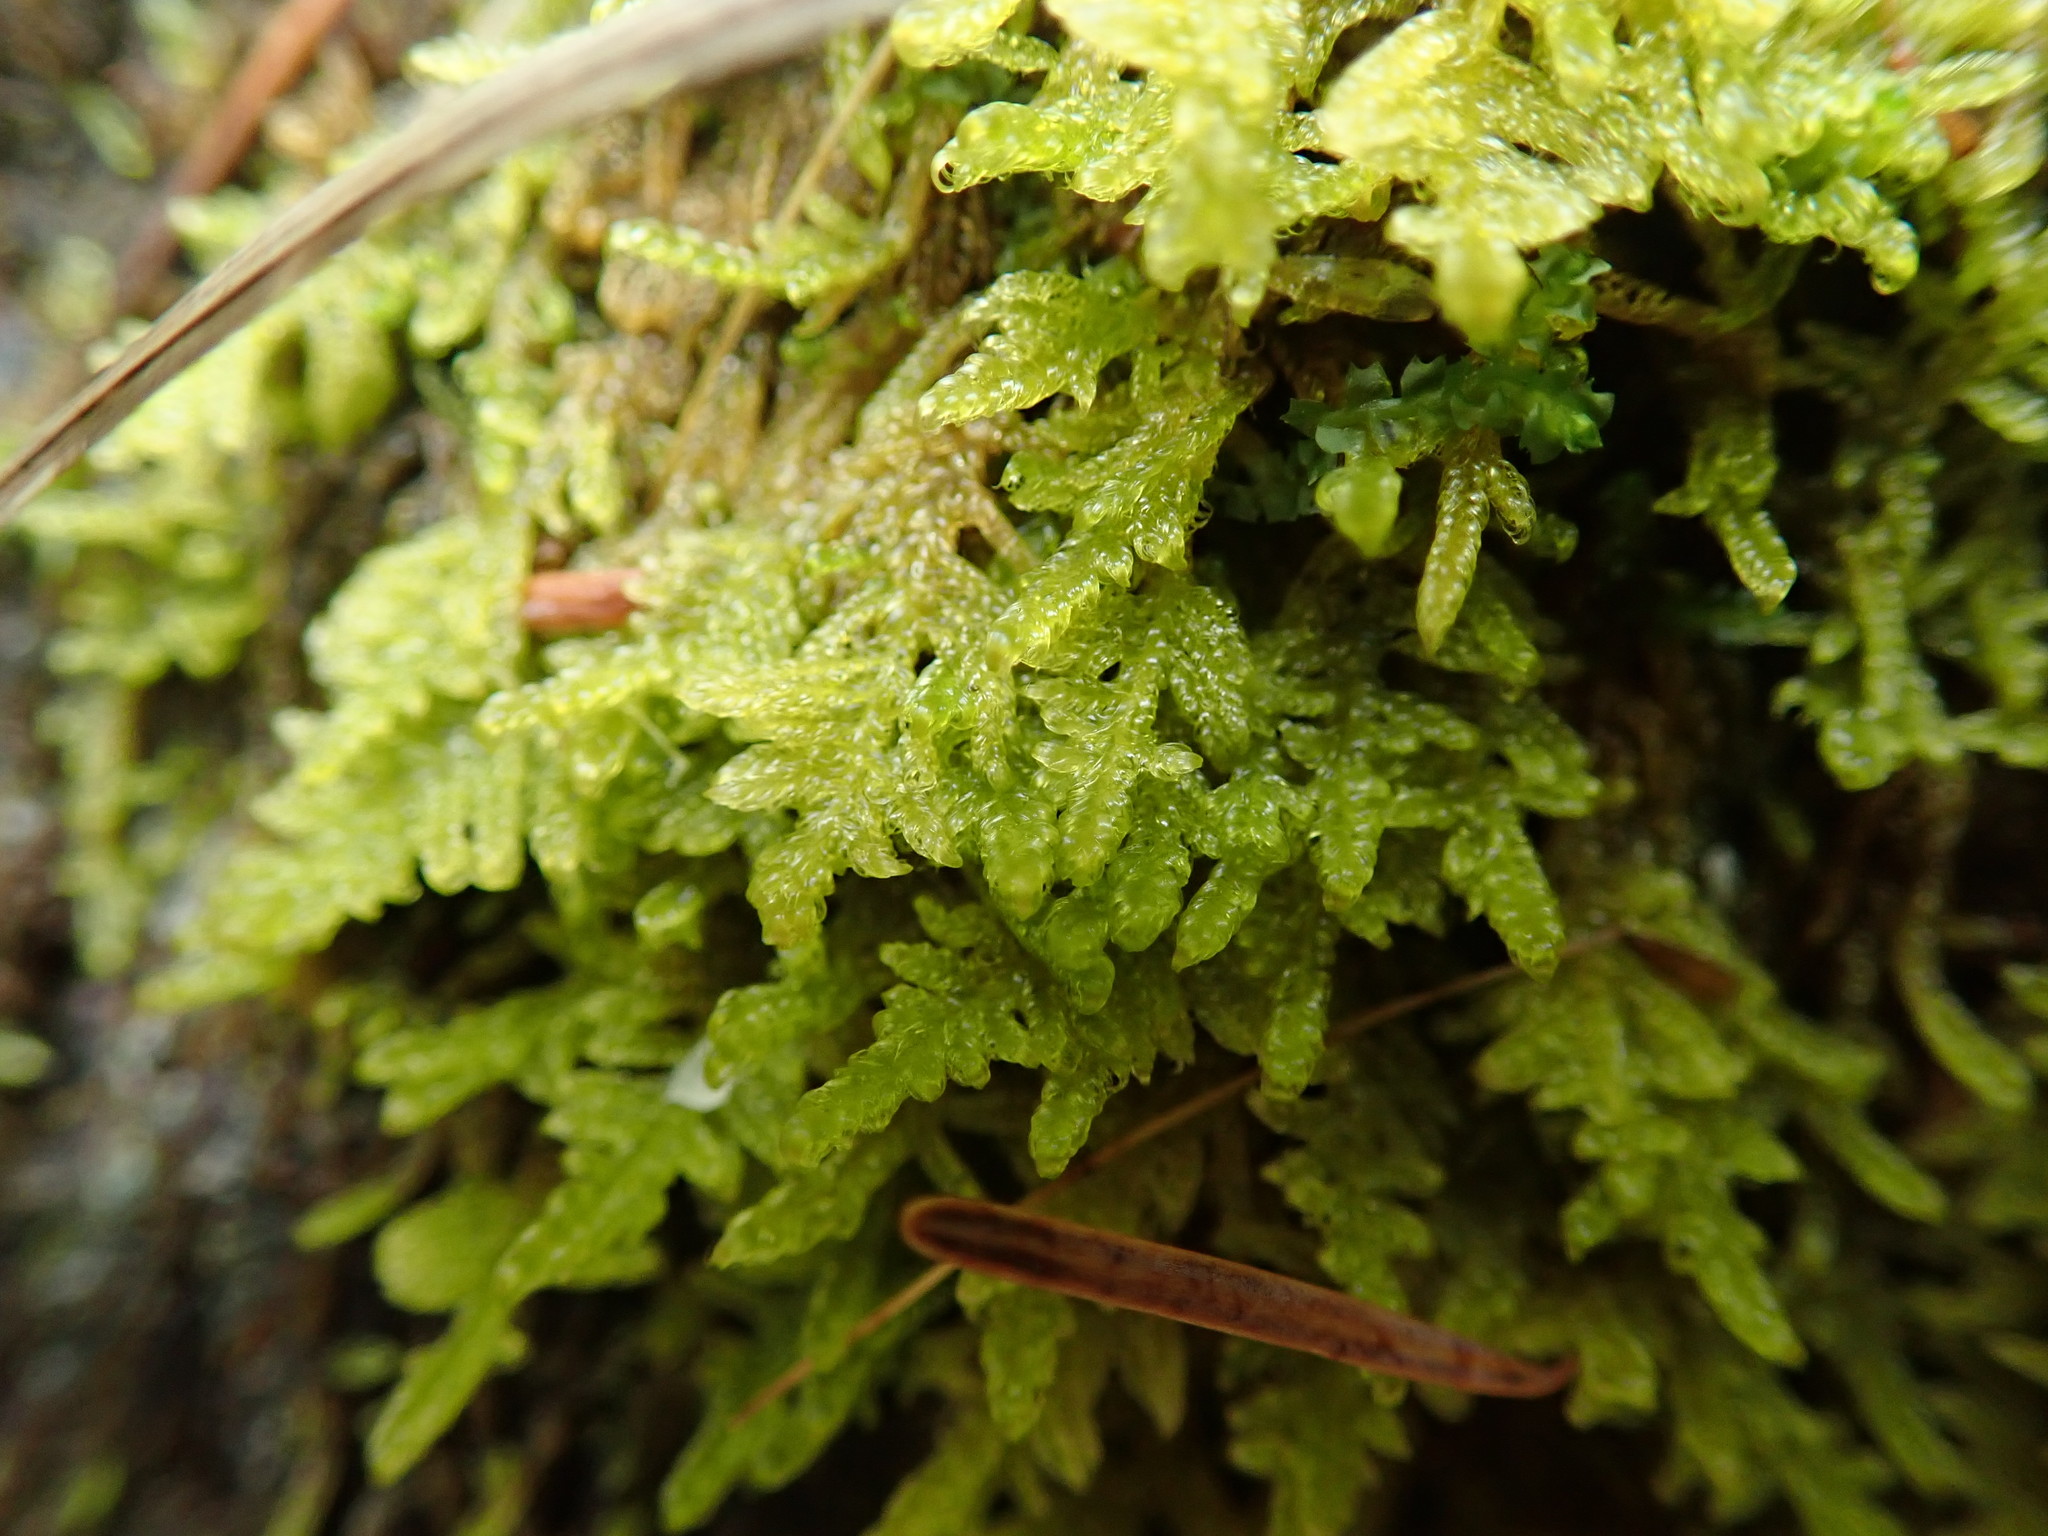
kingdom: Plantae
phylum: Bryophyta
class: Bryopsida
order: Hypnales
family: Stereodontaceae
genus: Stereodon
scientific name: Stereodon subimponens
